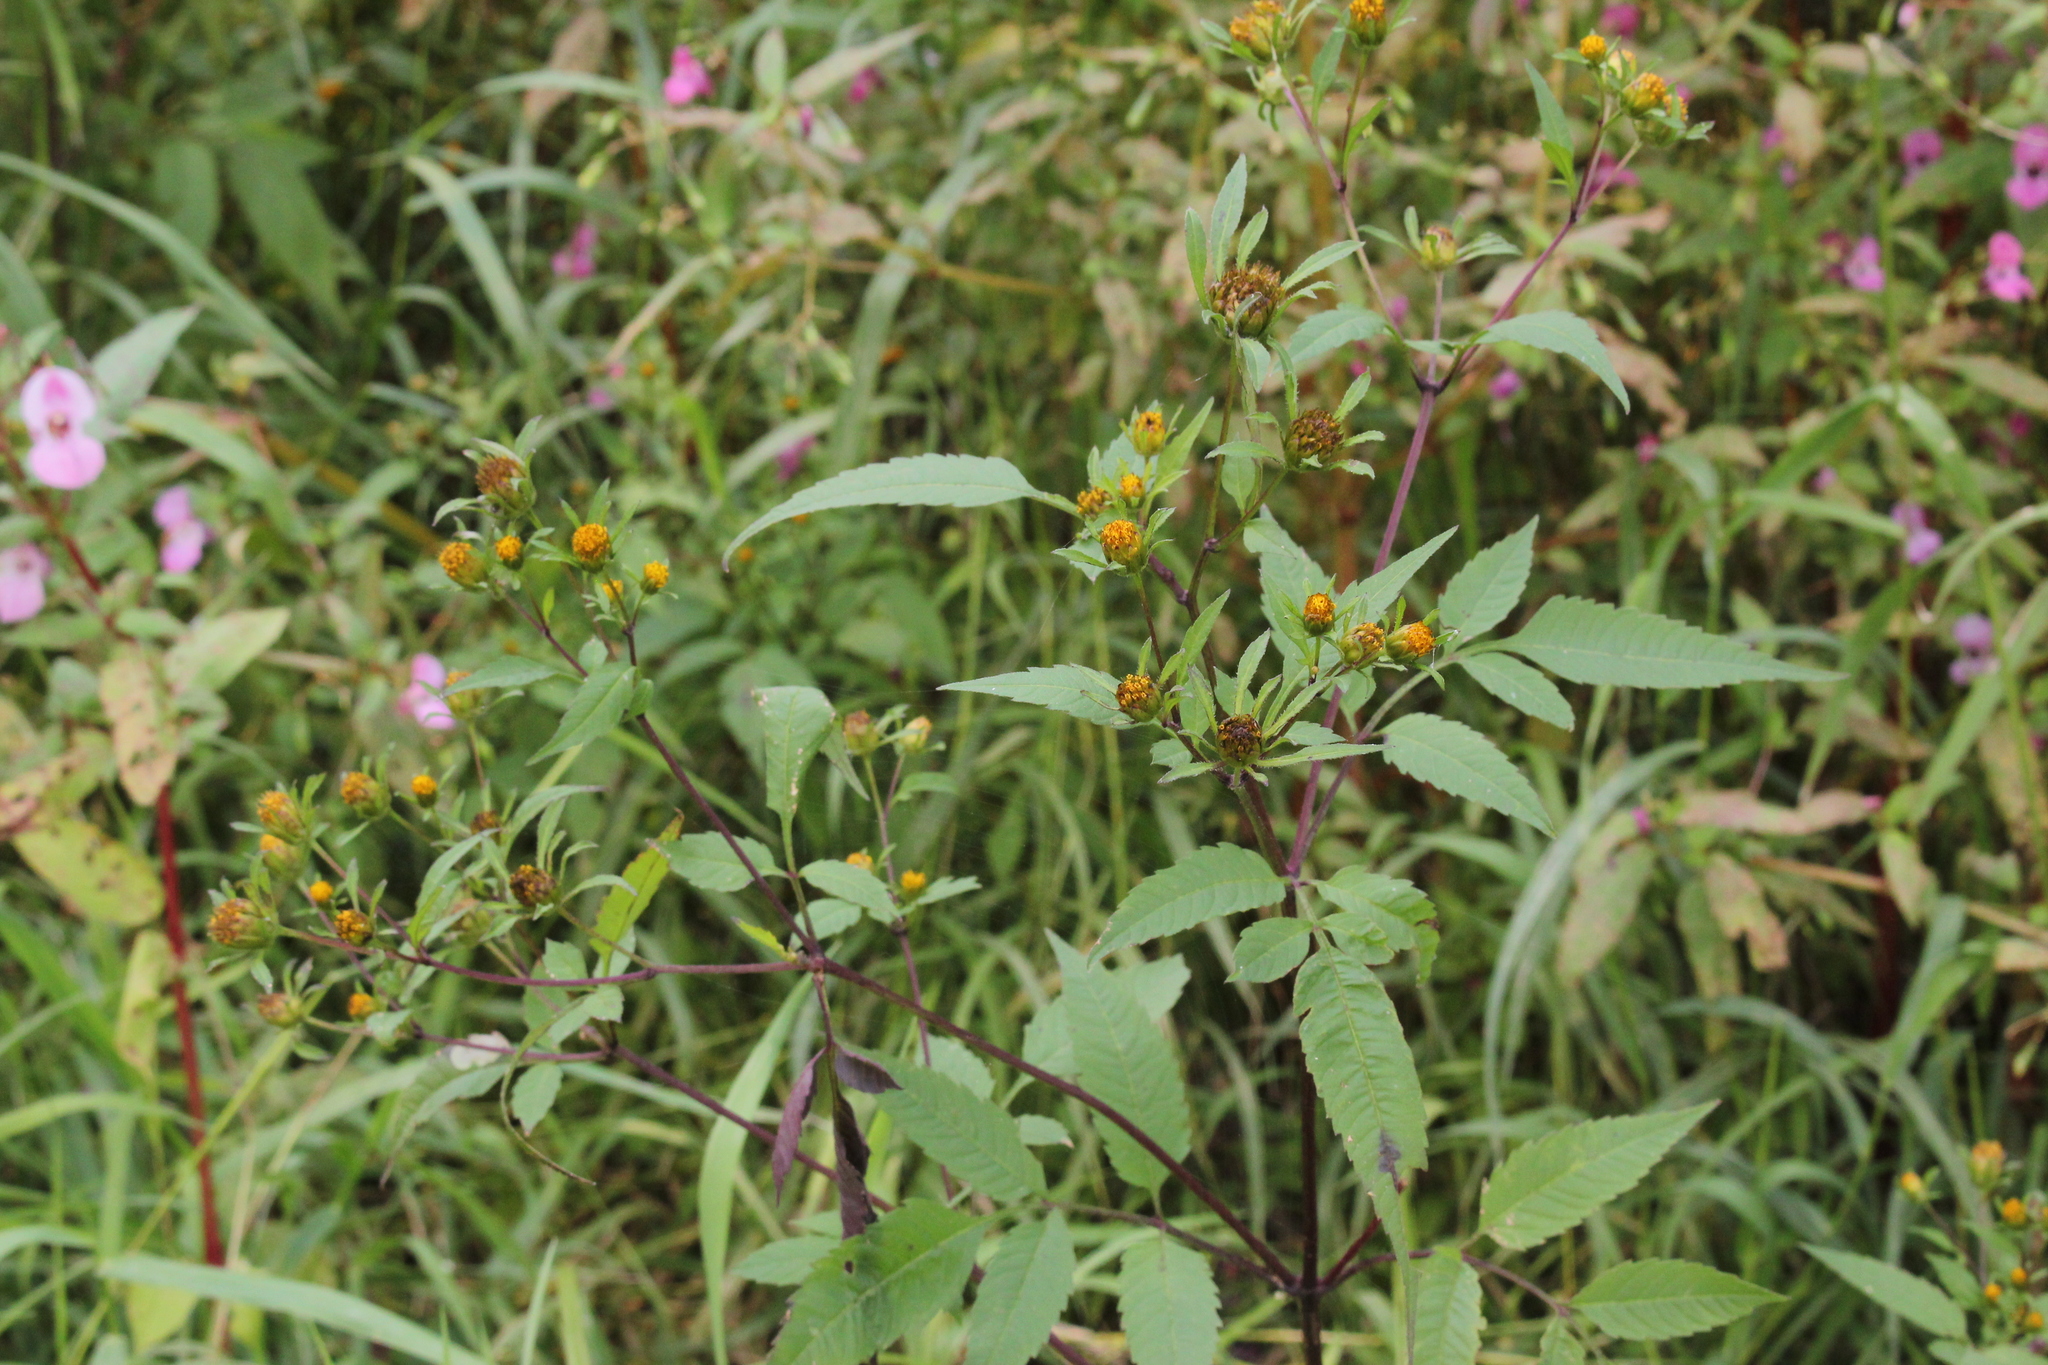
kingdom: Plantae
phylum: Tracheophyta
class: Magnoliopsida
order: Asterales
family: Asteraceae
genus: Bidens
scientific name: Bidens frondosa
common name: Beggarticks
